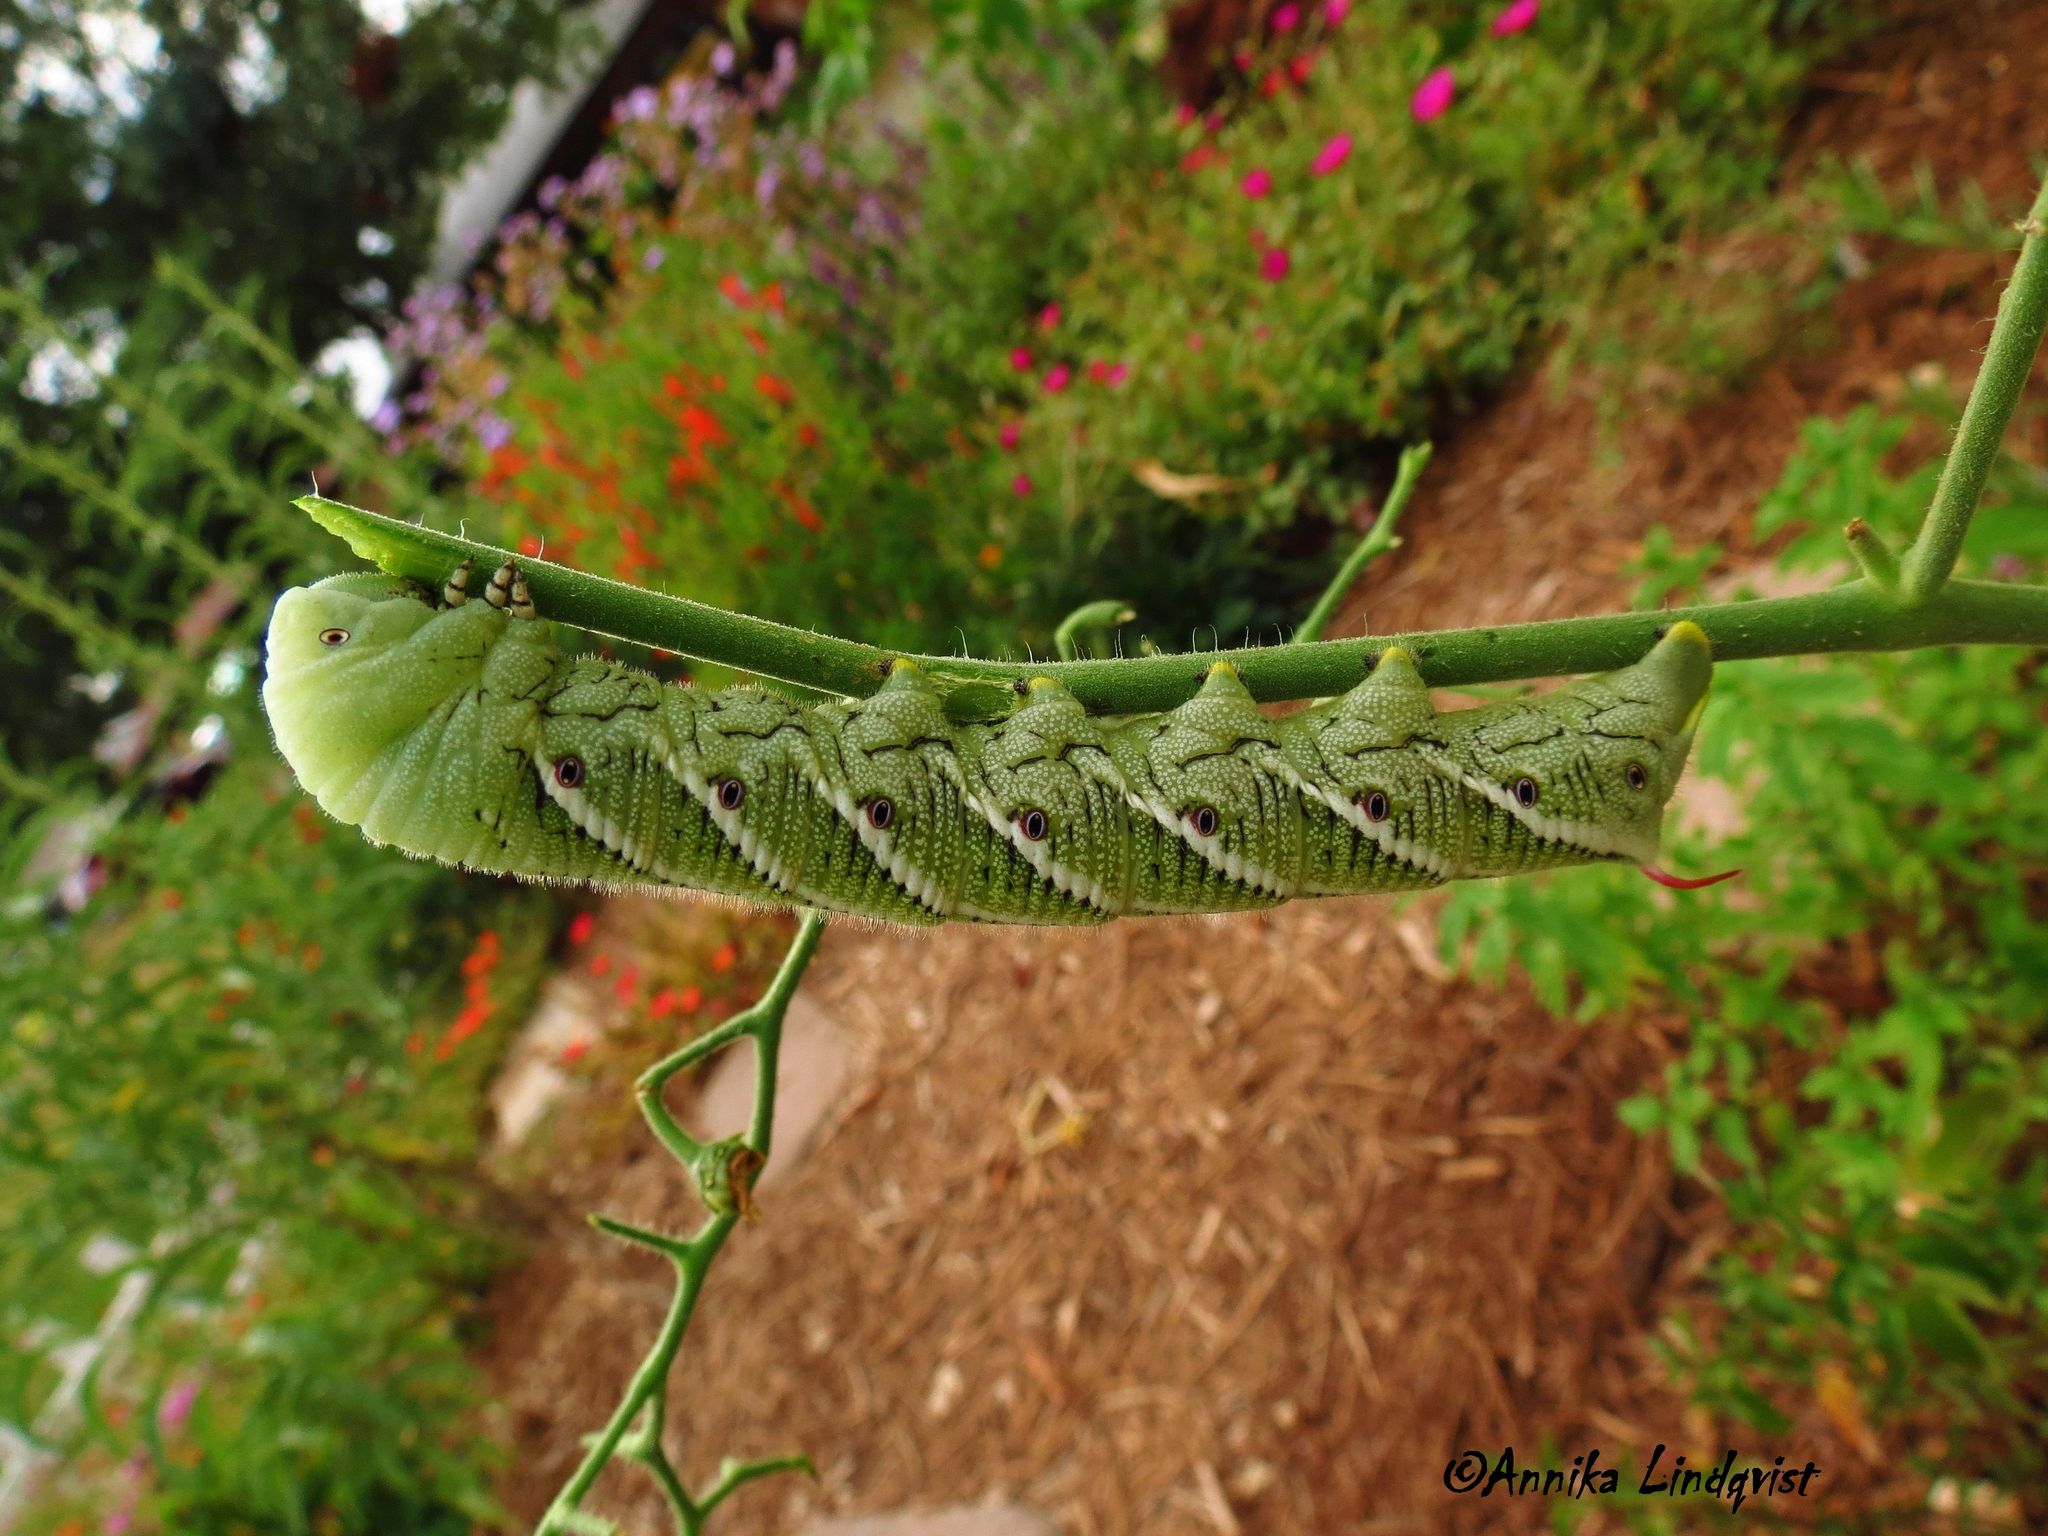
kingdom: Animalia
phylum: Arthropoda
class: Insecta
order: Lepidoptera
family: Sphingidae
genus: Manduca
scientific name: Manduca sexta
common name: Carolina sphinx
